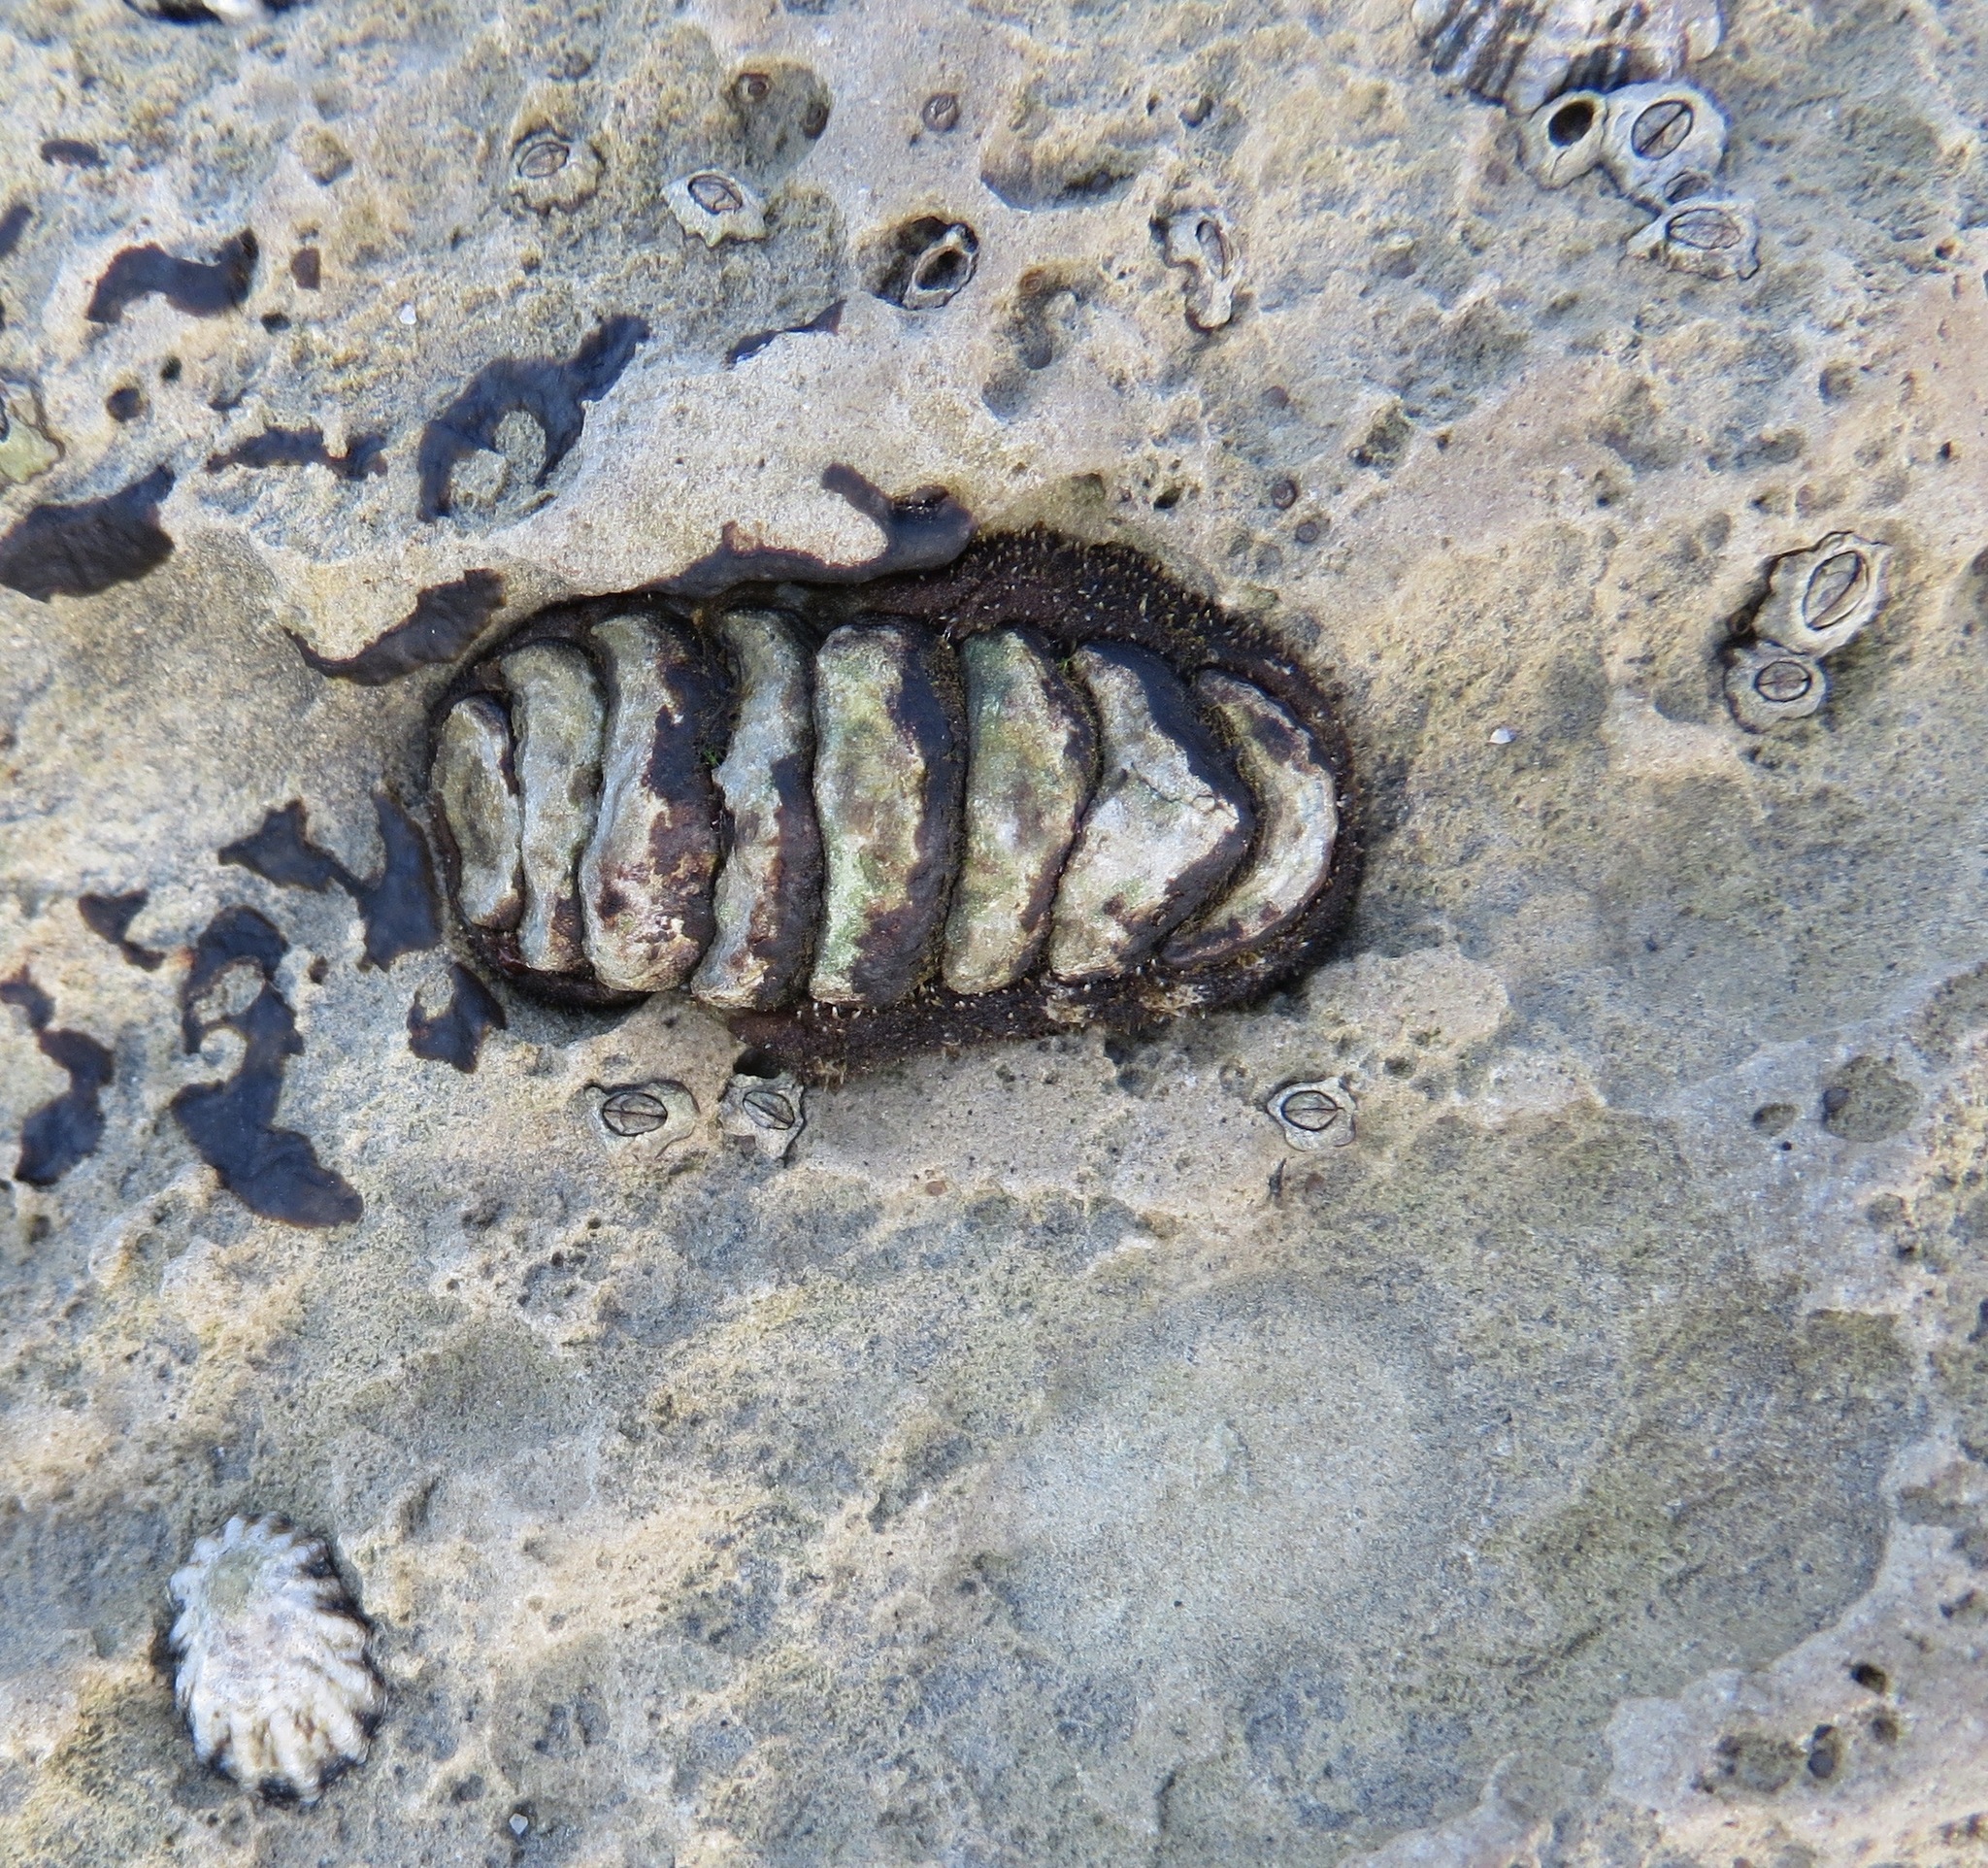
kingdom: Animalia
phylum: Mollusca
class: Polyplacophora
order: Chitonida
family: Tonicellidae
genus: Nuttallina
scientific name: Nuttallina californica
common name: California nuttall chiton
